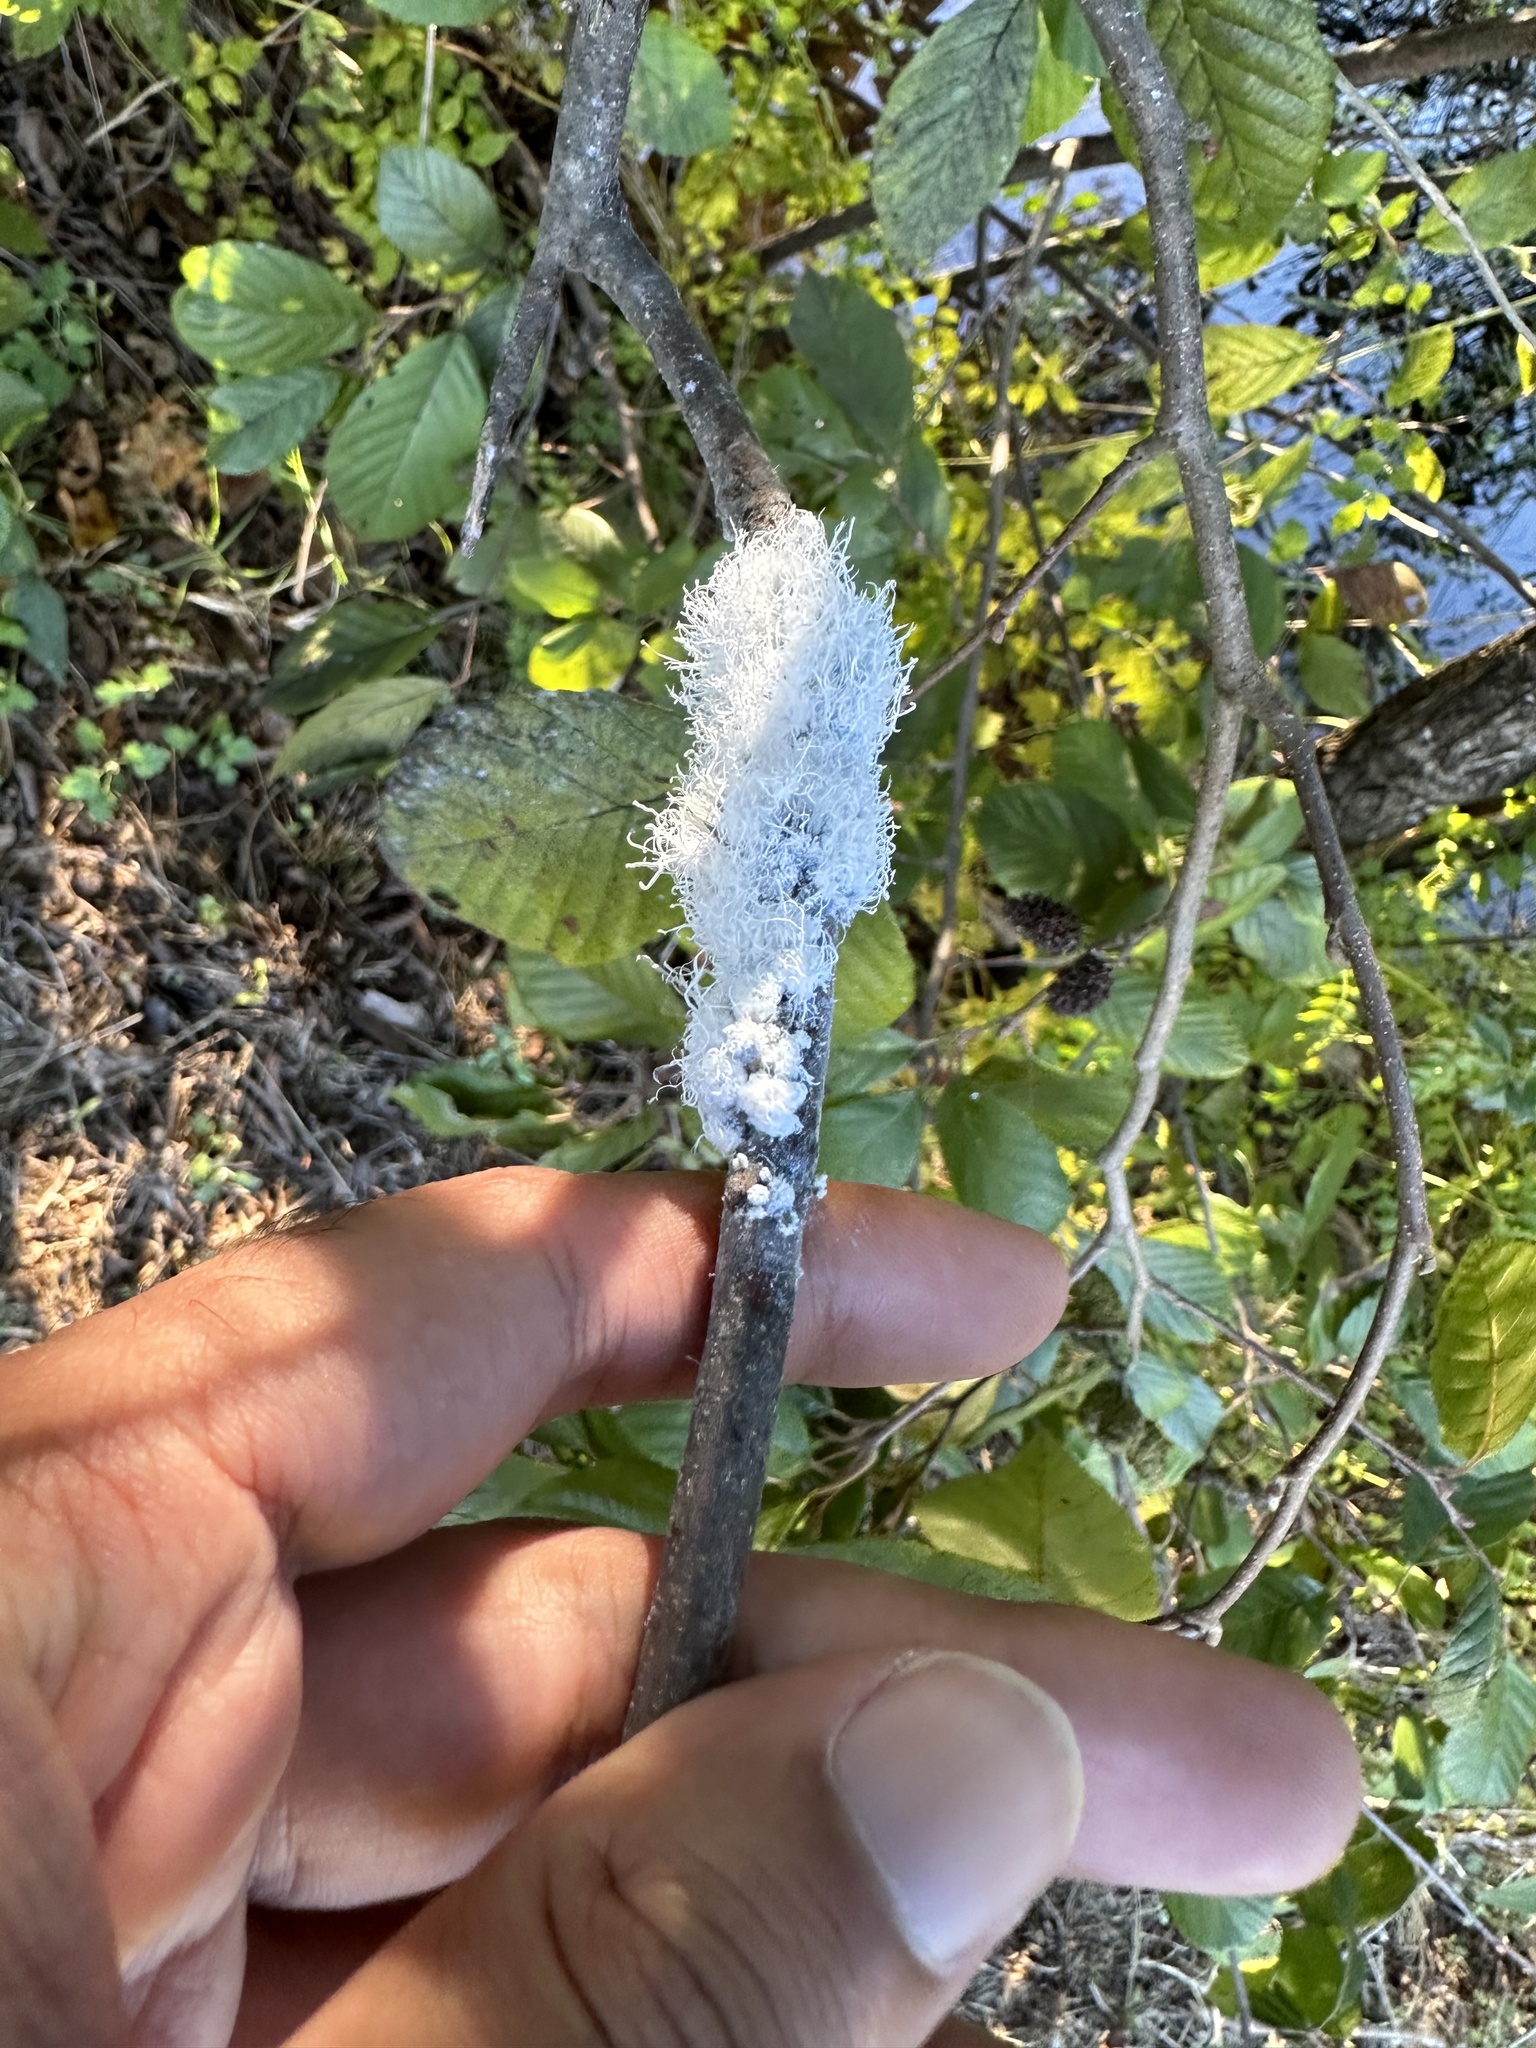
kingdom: Animalia
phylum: Arthropoda
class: Insecta
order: Hemiptera
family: Aphididae
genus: Prociphilus
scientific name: Prociphilus tessellatus
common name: Woolly alder aphid
